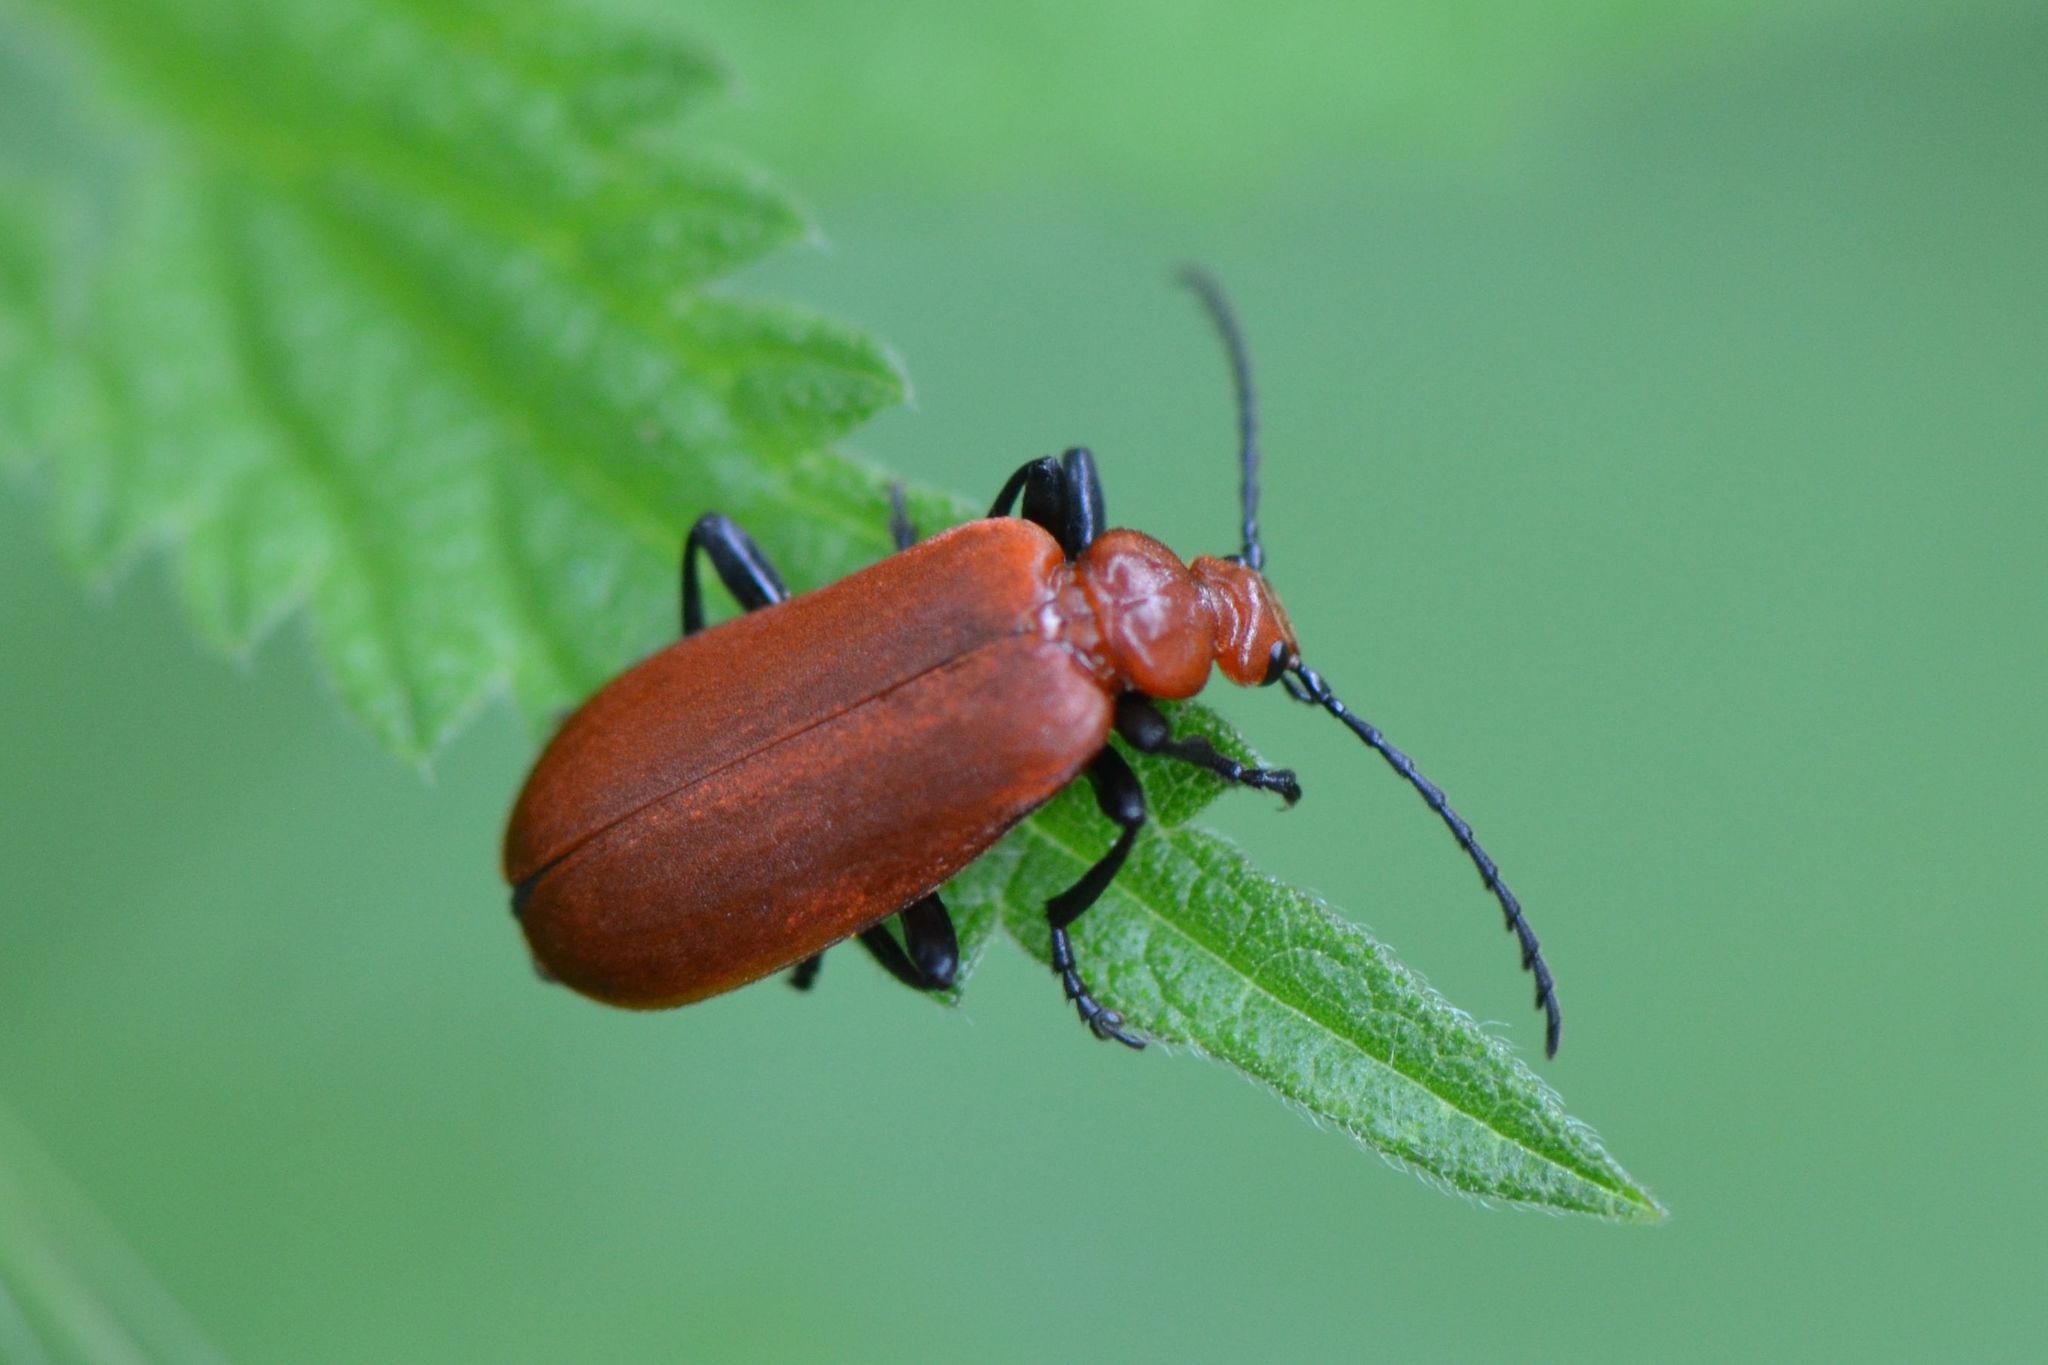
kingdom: Animalia
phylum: Arthropoda
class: Insecta
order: Coleoptera
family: Pyrochroidae
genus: Pyrochroa
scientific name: Pyrochroa serraticornis
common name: Red-headed cardinal beetle
